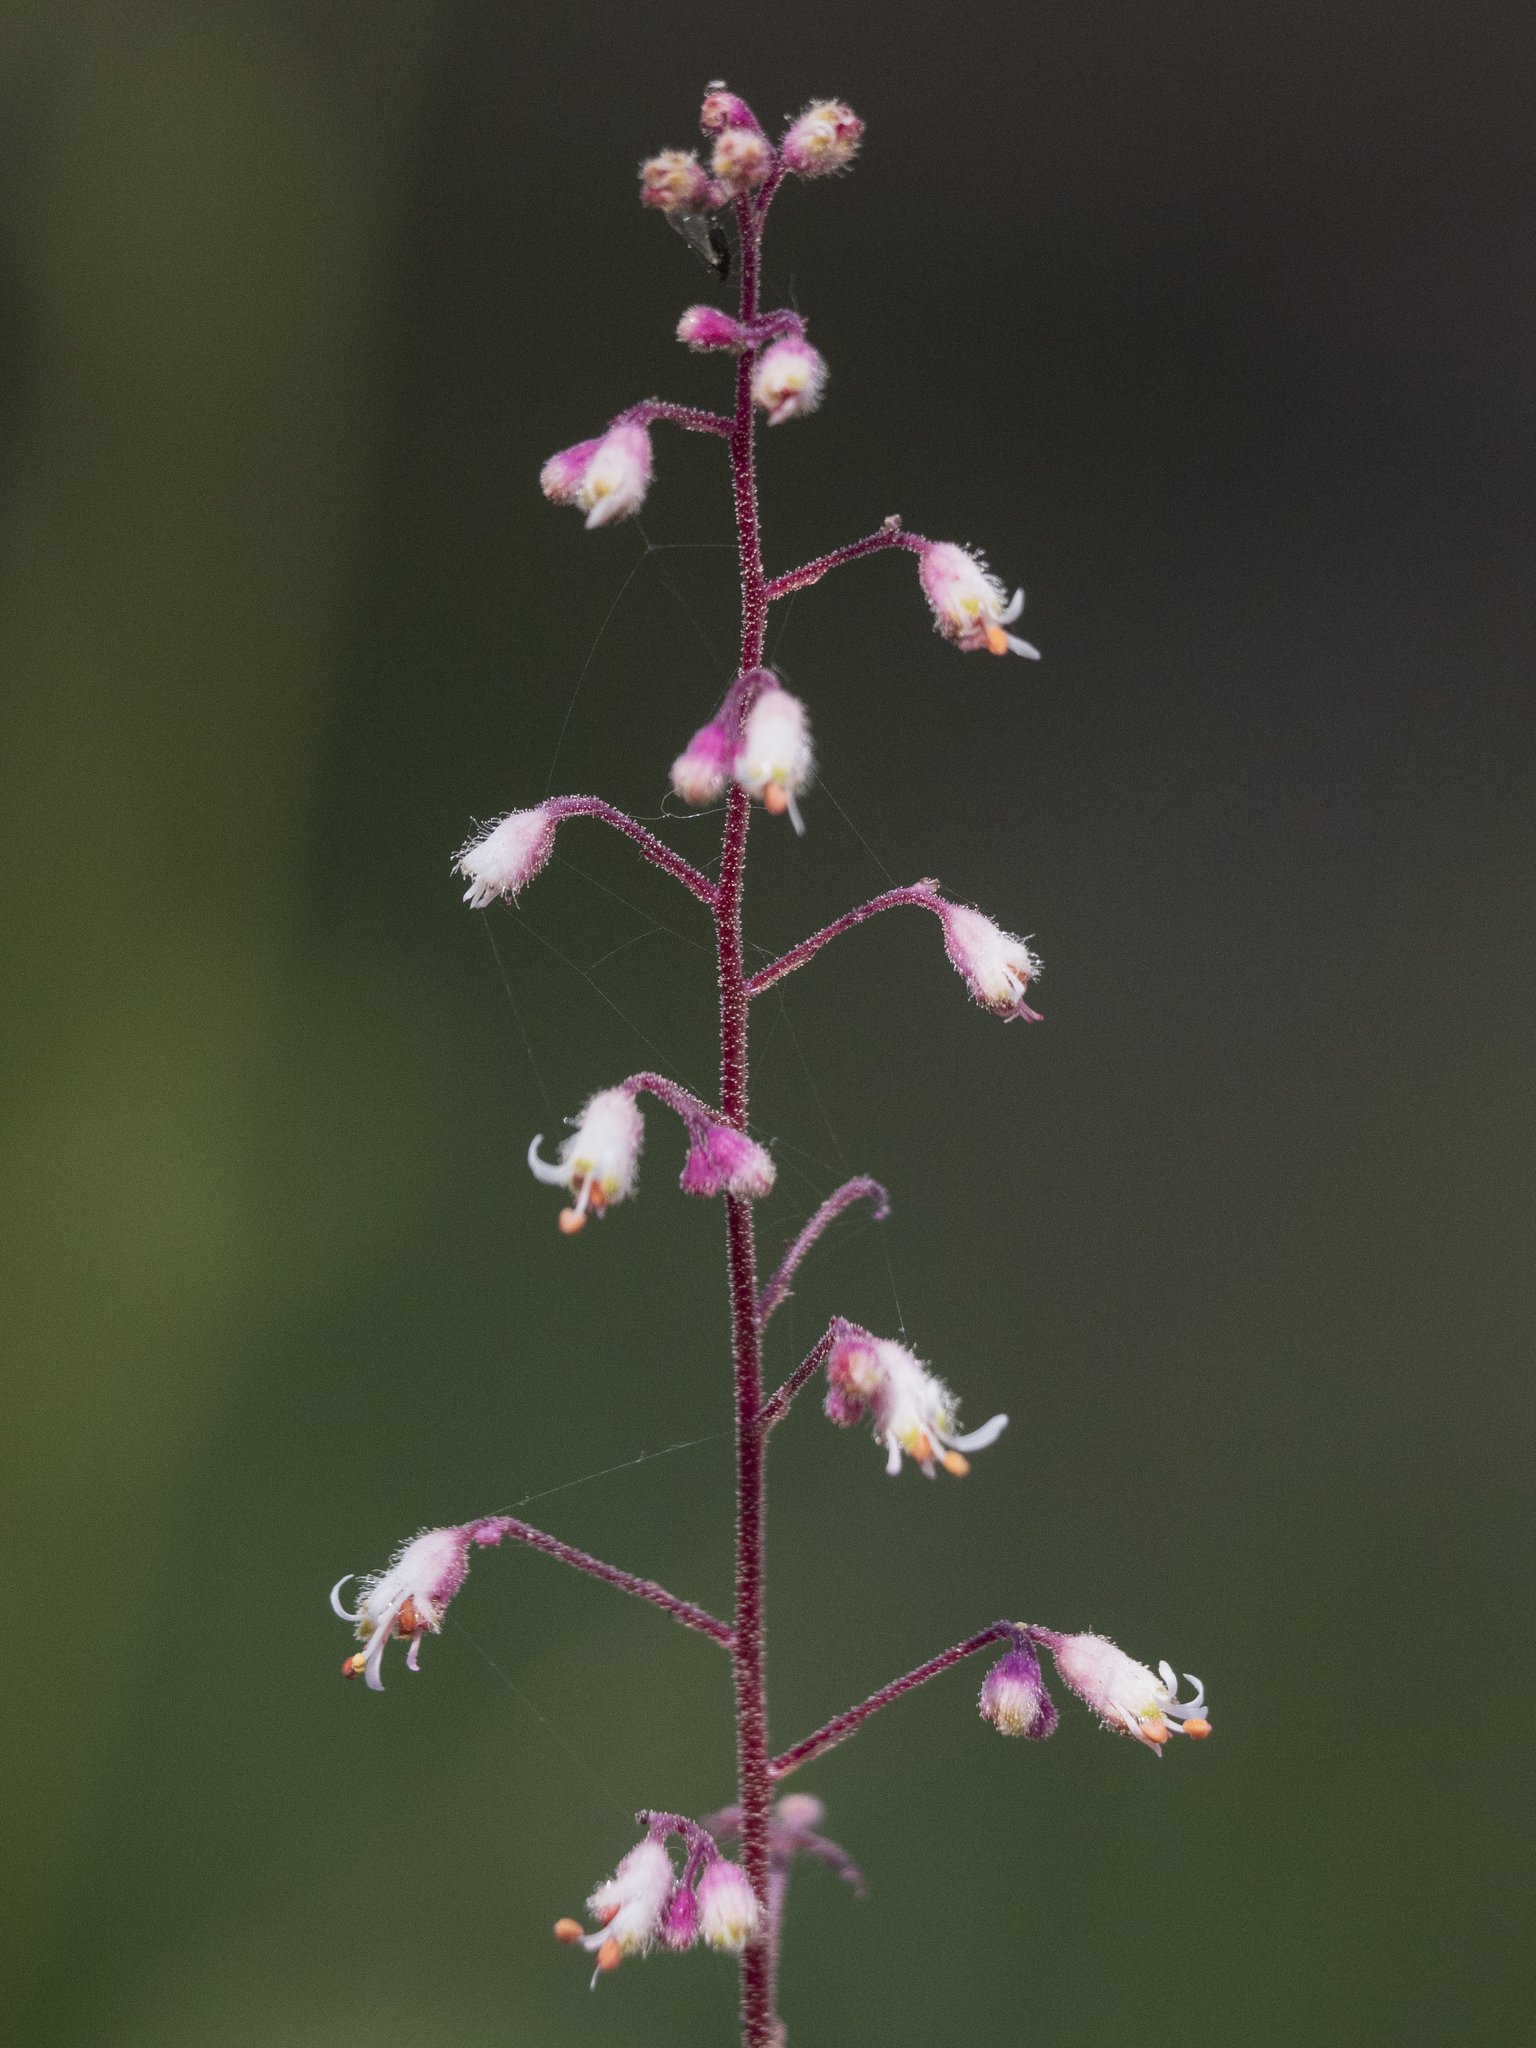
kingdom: Plantae
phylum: Tracheophyta
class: Magnoliopsida
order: Saxifragales
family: Saxifragaceae
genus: Heuchera
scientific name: Heuchera rubescens
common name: Jack-o'the-rocks
